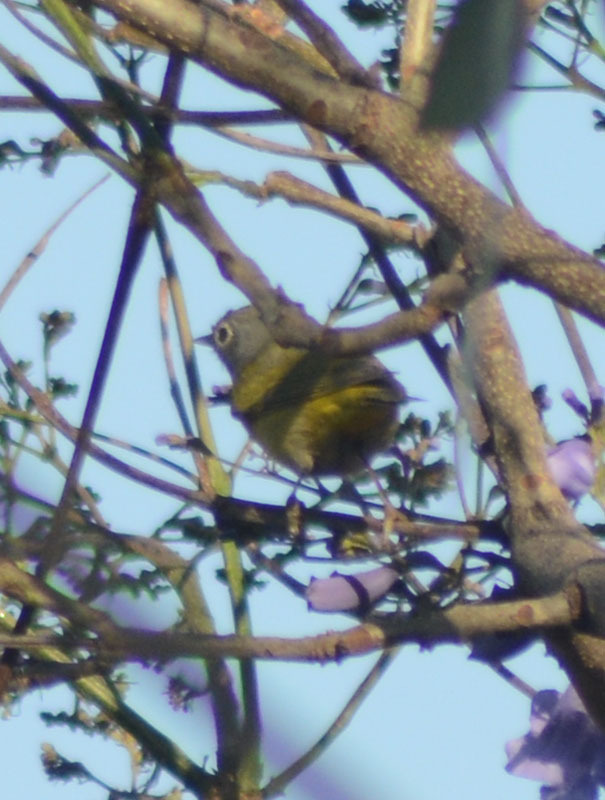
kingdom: Animalia
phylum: Chordata
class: Aves
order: Passeriformes
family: Parulidae
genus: Leiothlypis
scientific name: Leiothlypis ruficapilla
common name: Nashville warbler
